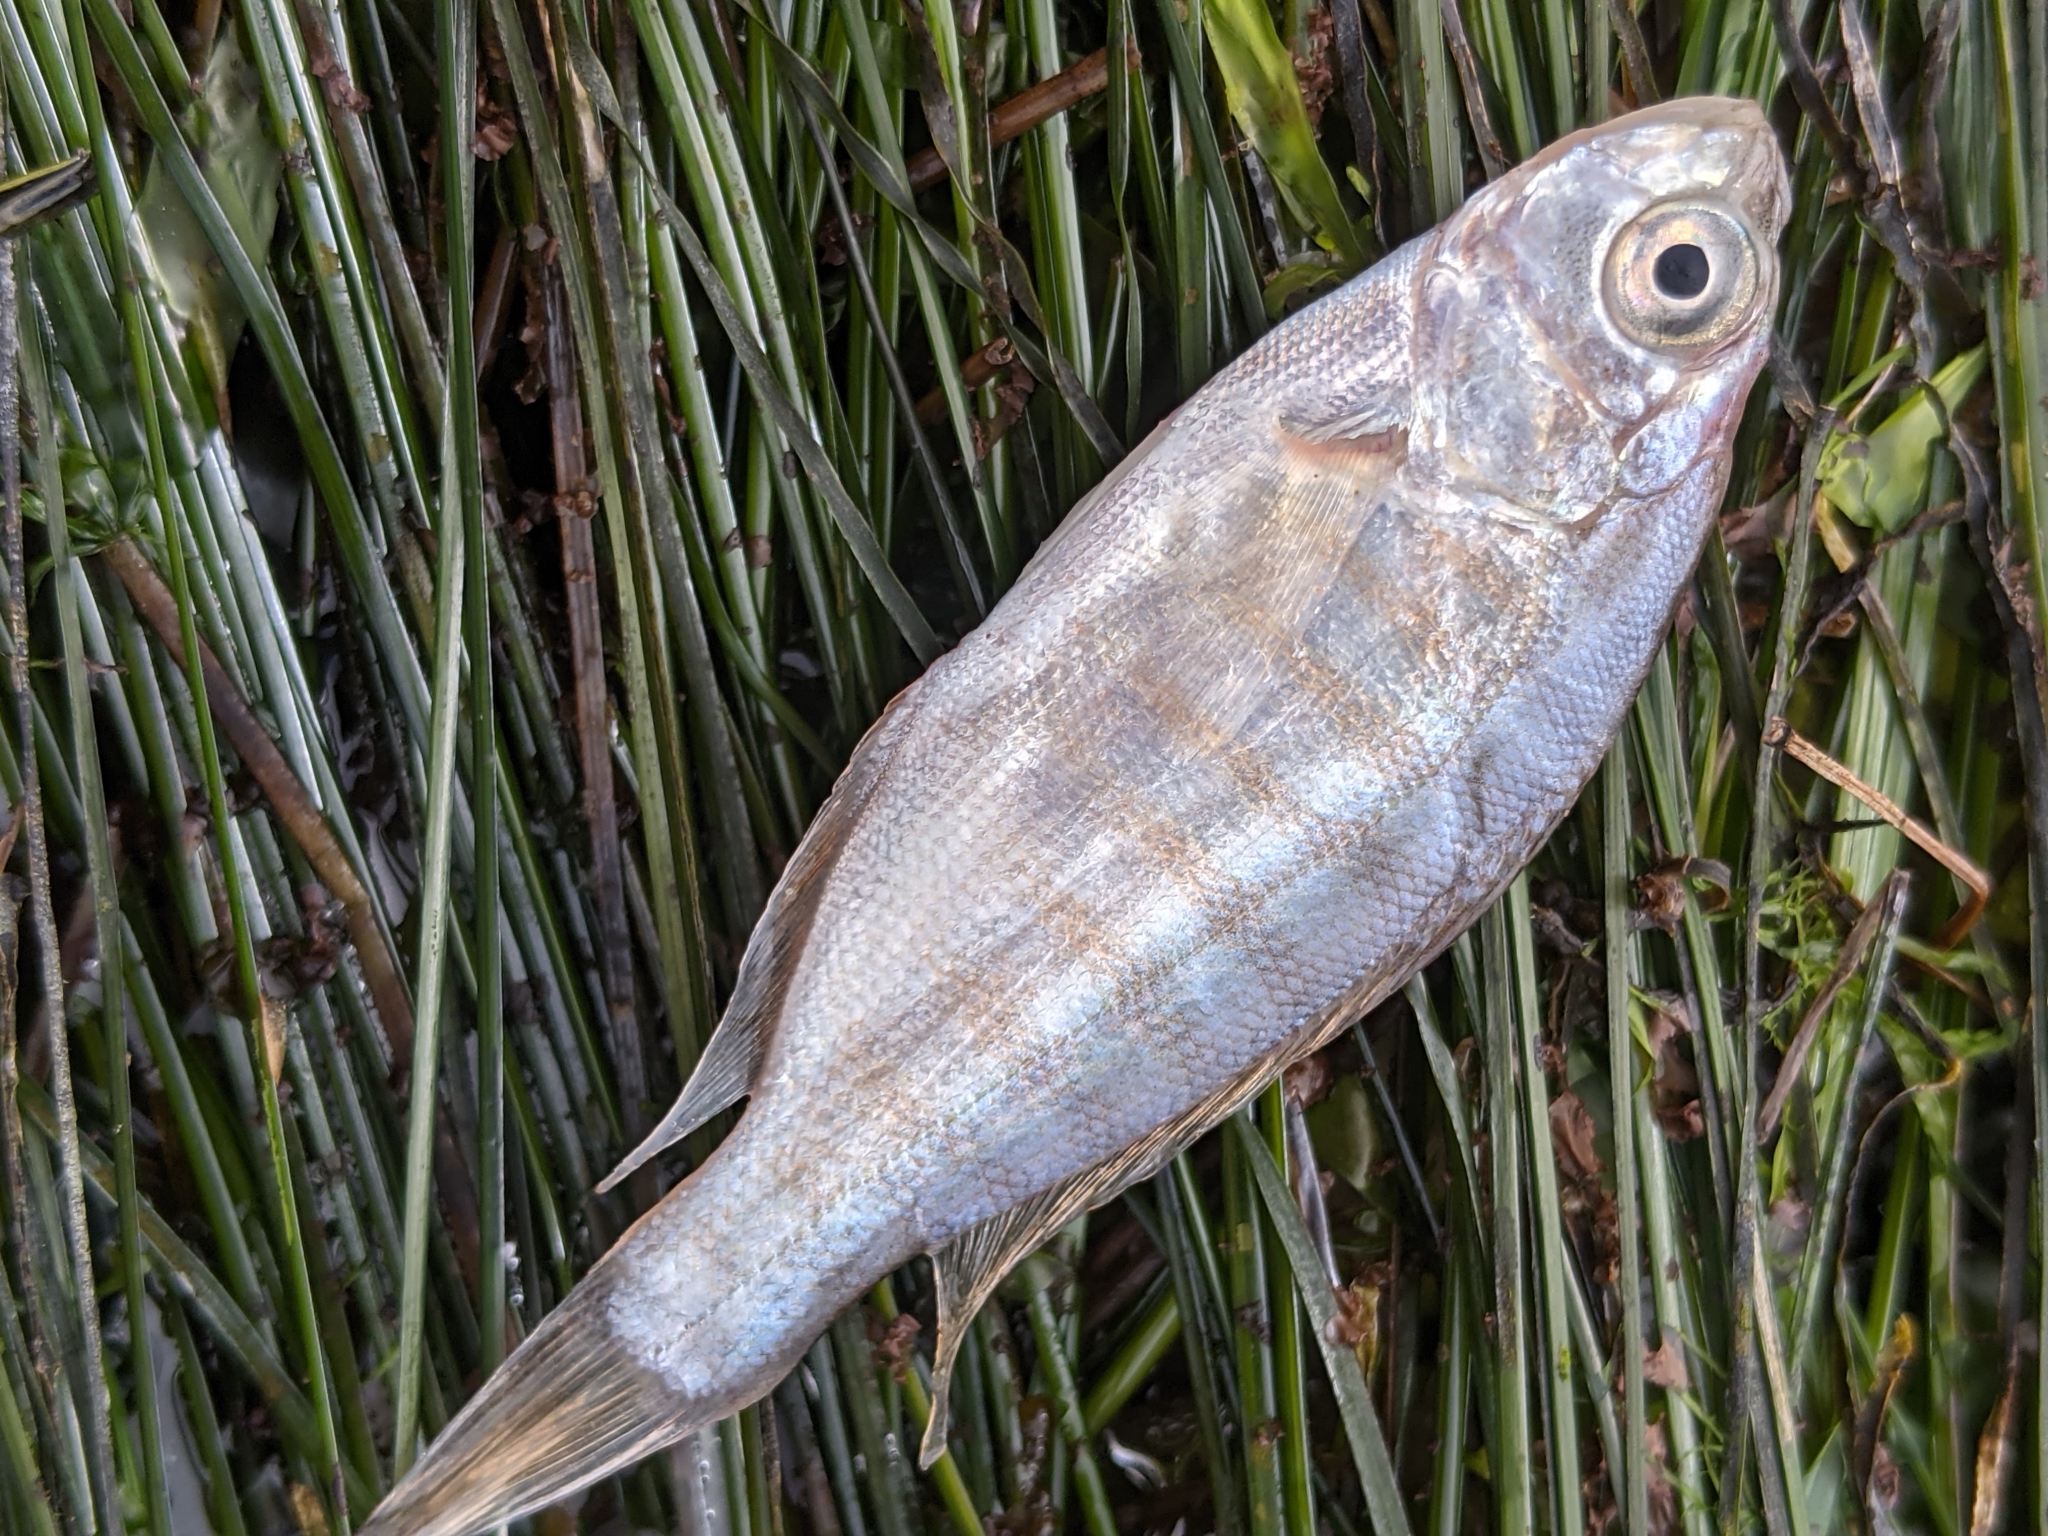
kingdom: Animalia
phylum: Chordata
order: Perciformes
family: Embiotocidae
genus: Amphistichus
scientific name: Amphistichus argenteus
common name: Barred surfperch
